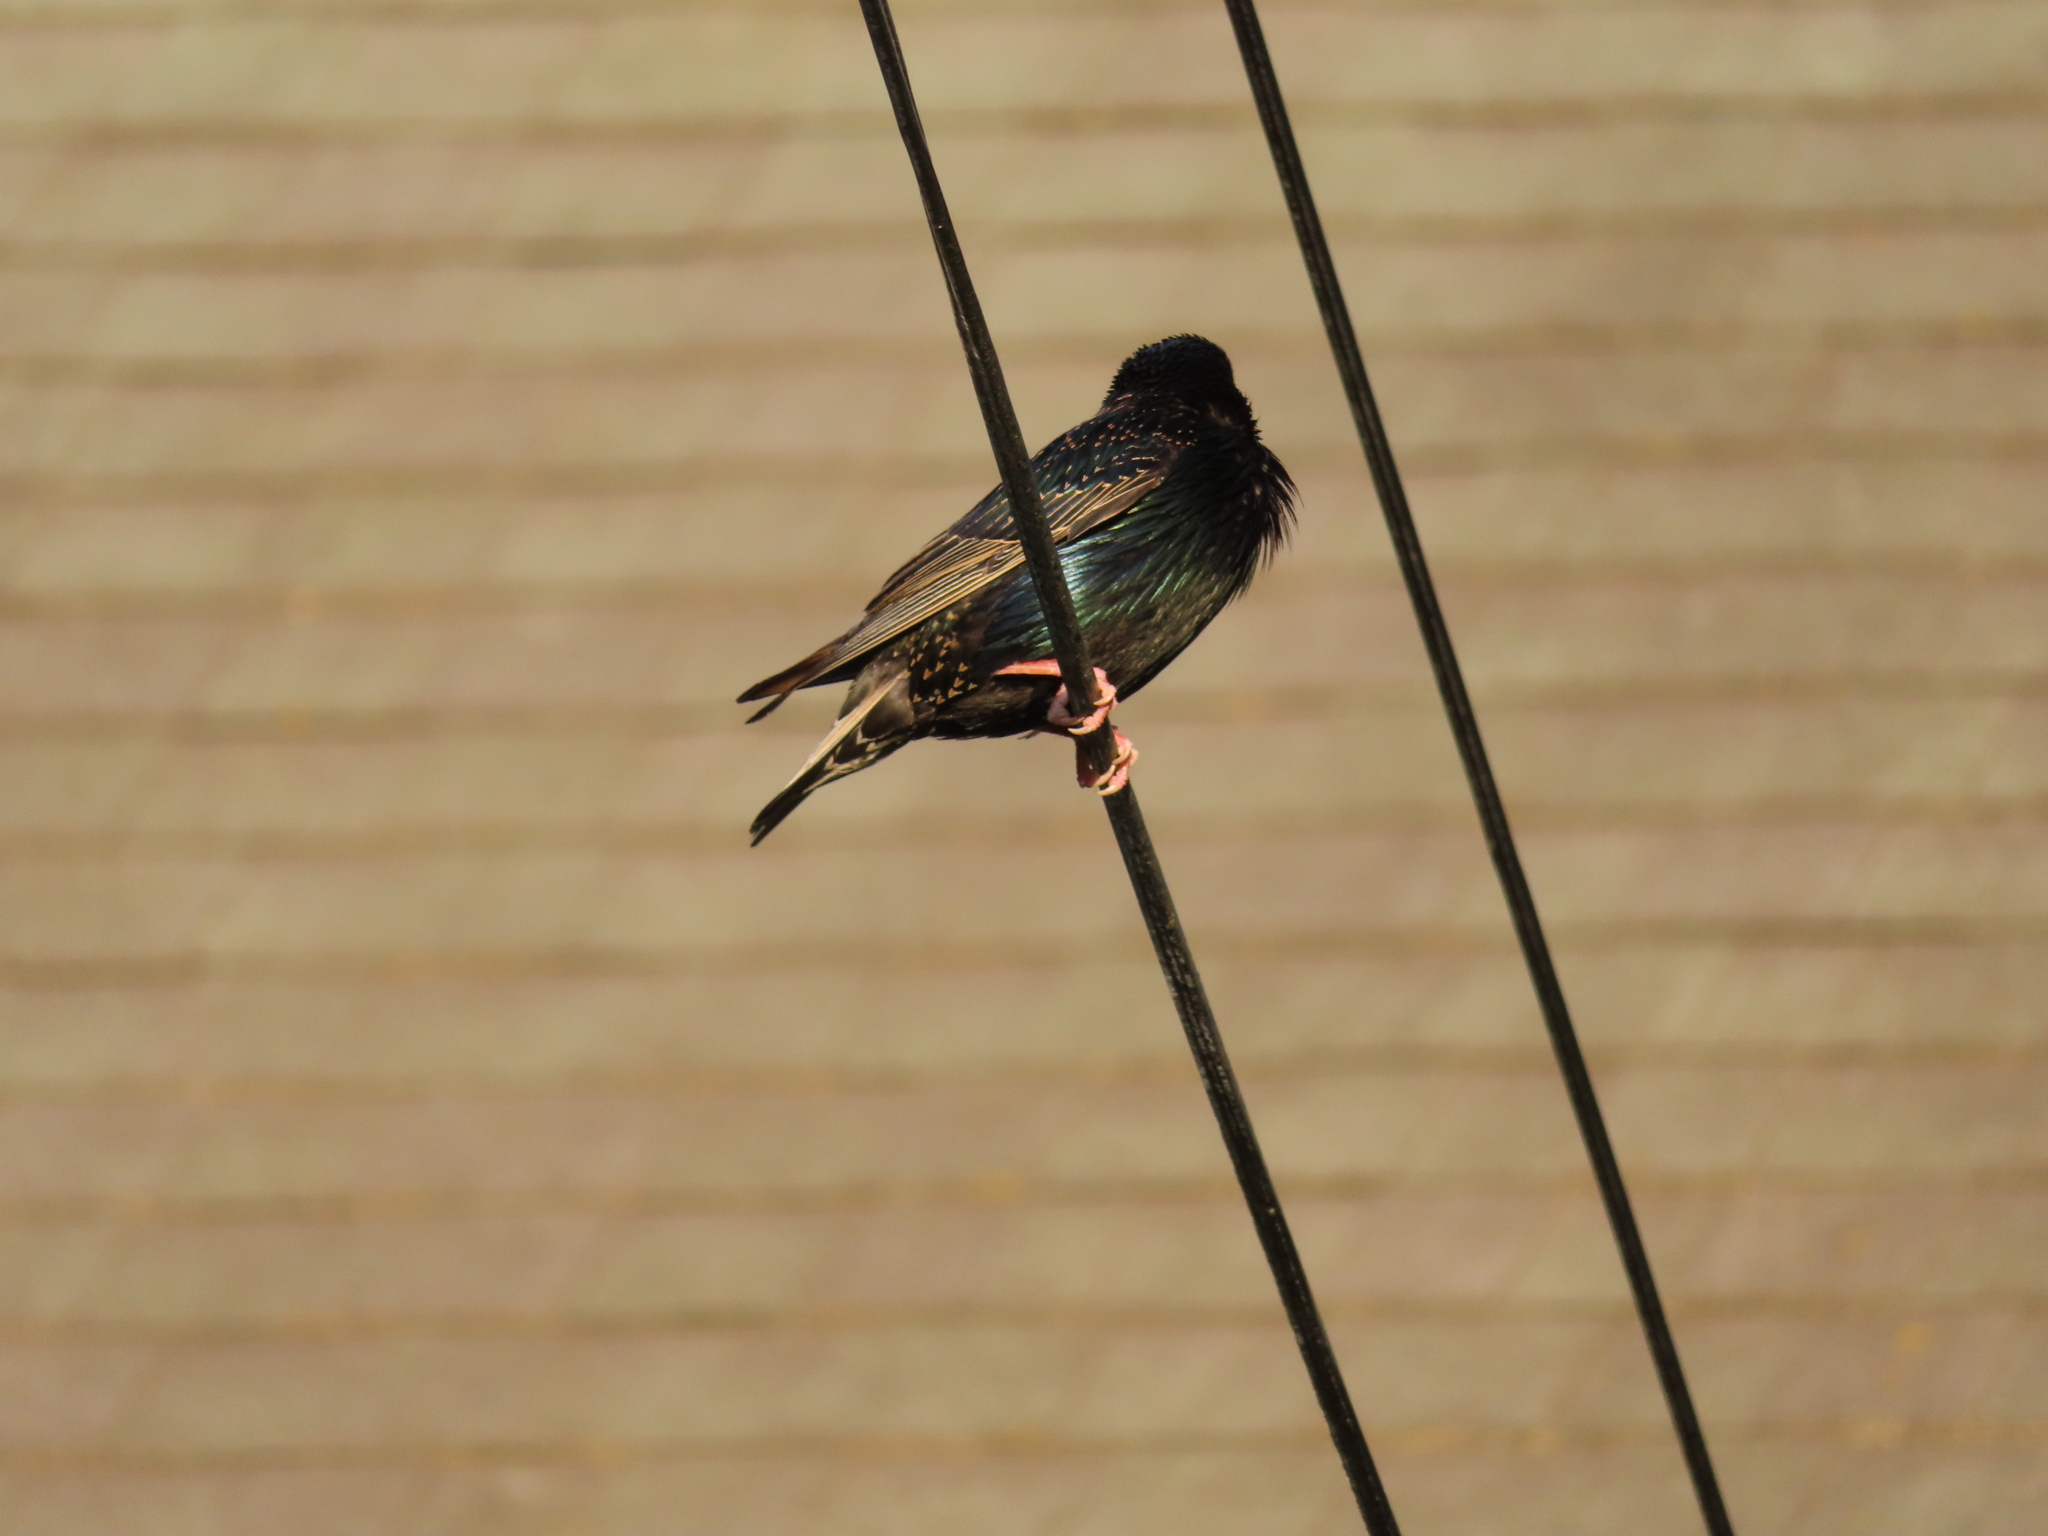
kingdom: Animalia
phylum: Chordata
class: Aves
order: Passeriformes
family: Sturnidae
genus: Sturnus
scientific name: Sturnus vulgaris
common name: Common starling
